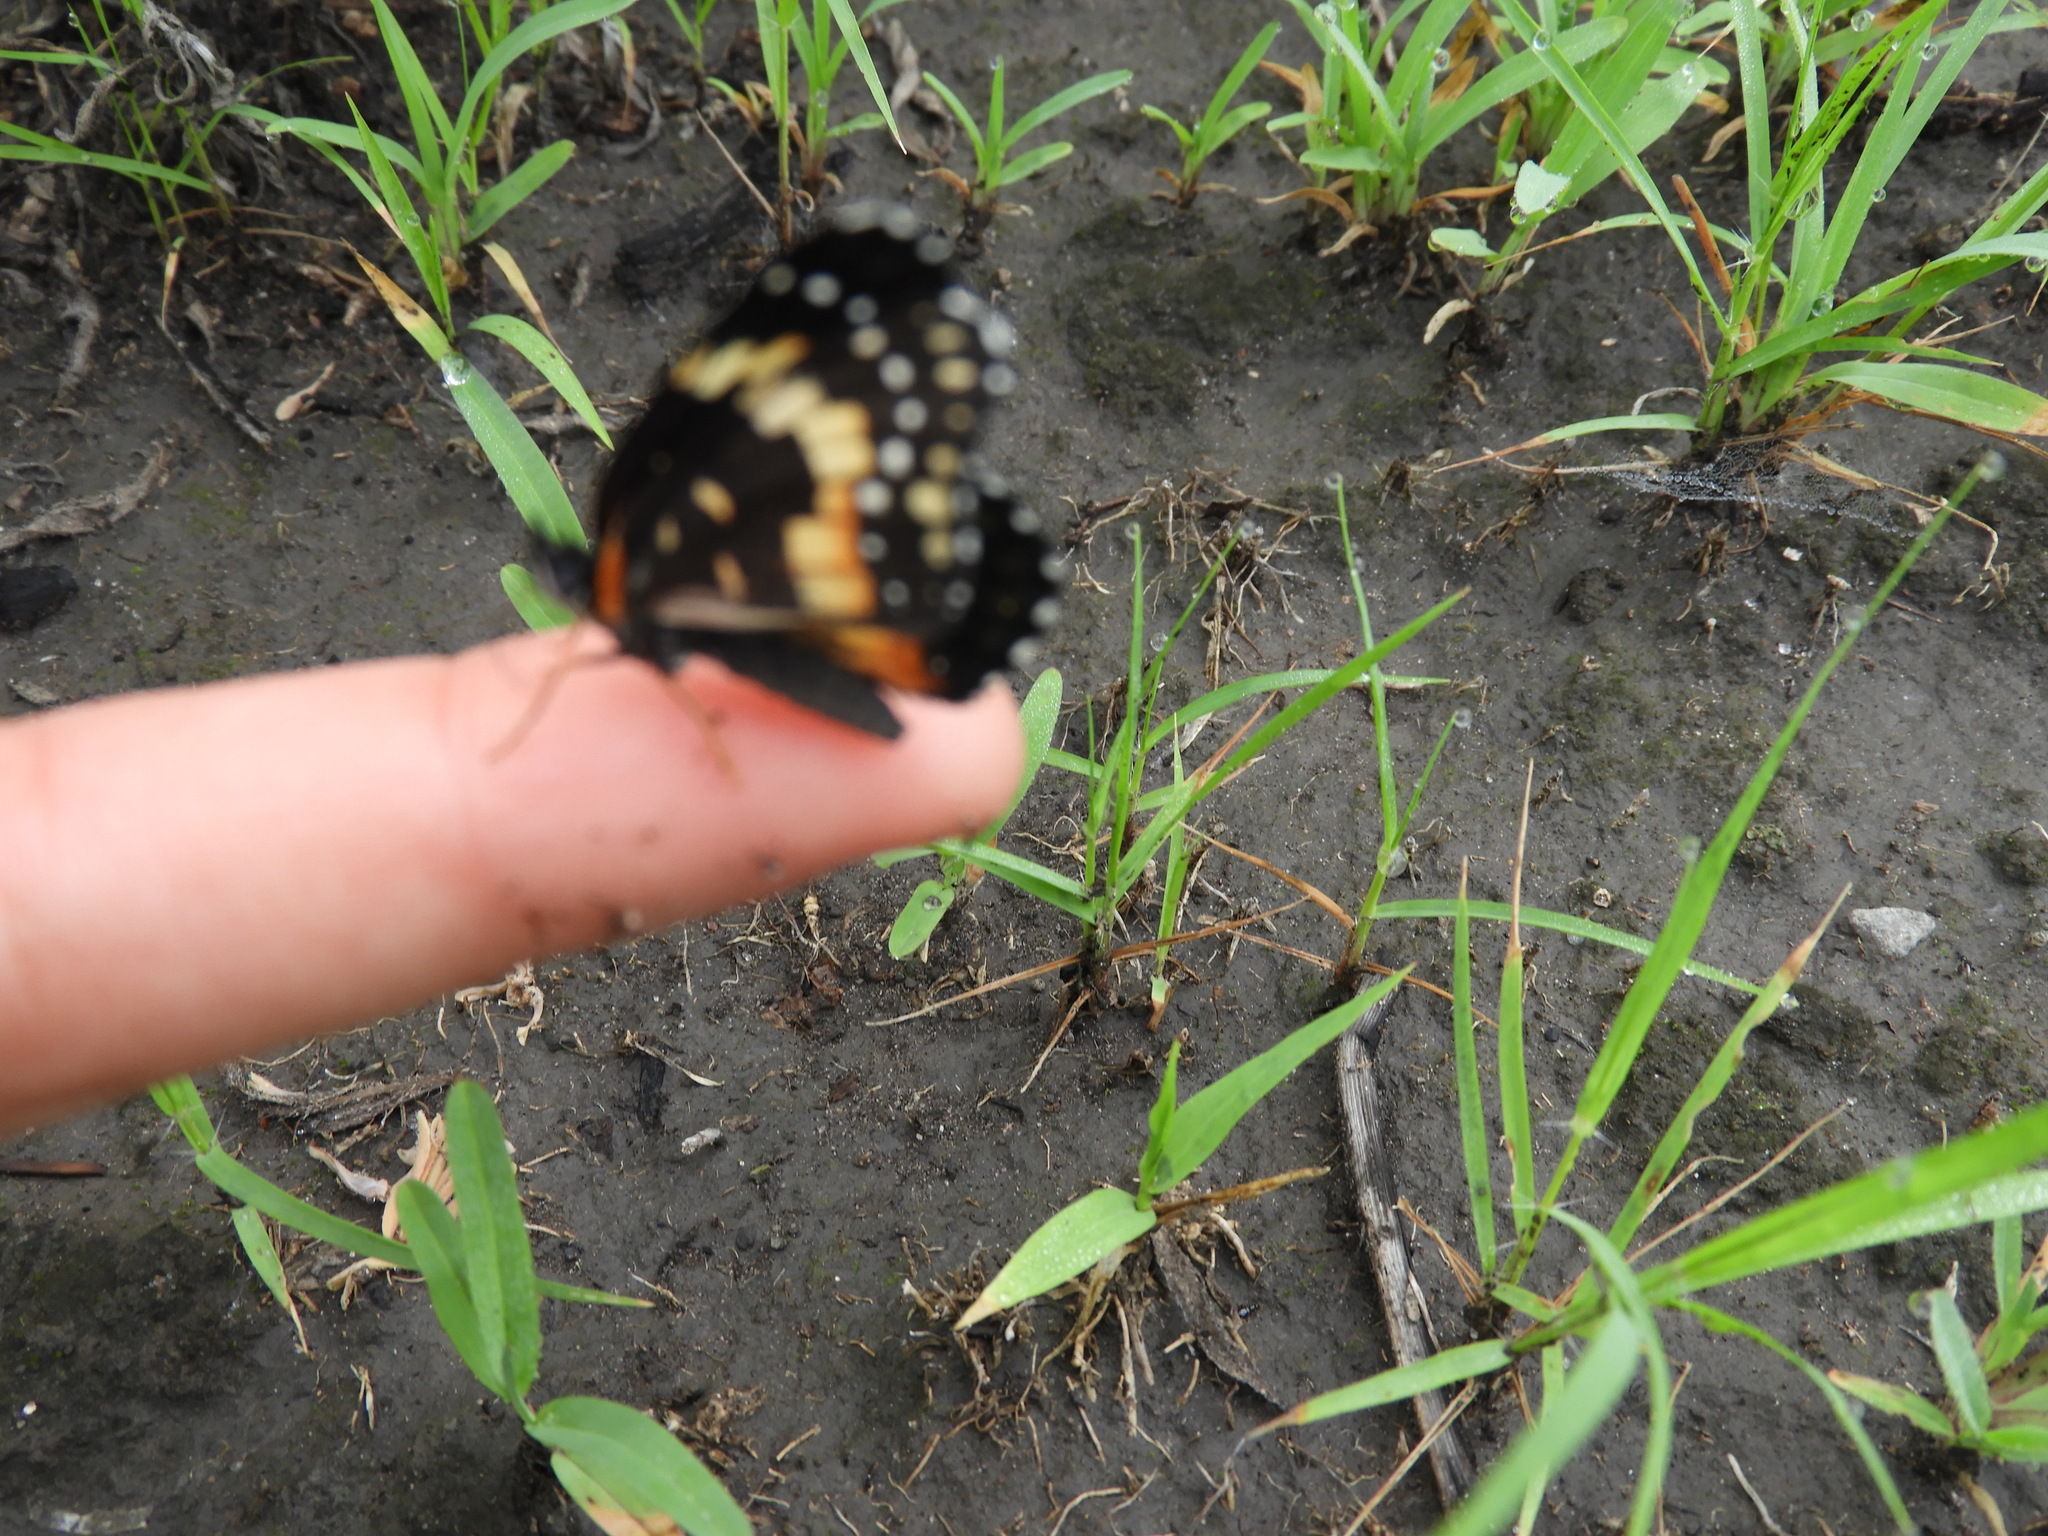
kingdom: Animalia
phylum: Arthropoda
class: Insecta
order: Lepidoptera
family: Nymphalidae
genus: Chlosyne
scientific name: Chlosyne lacinia
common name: Bordered patch
